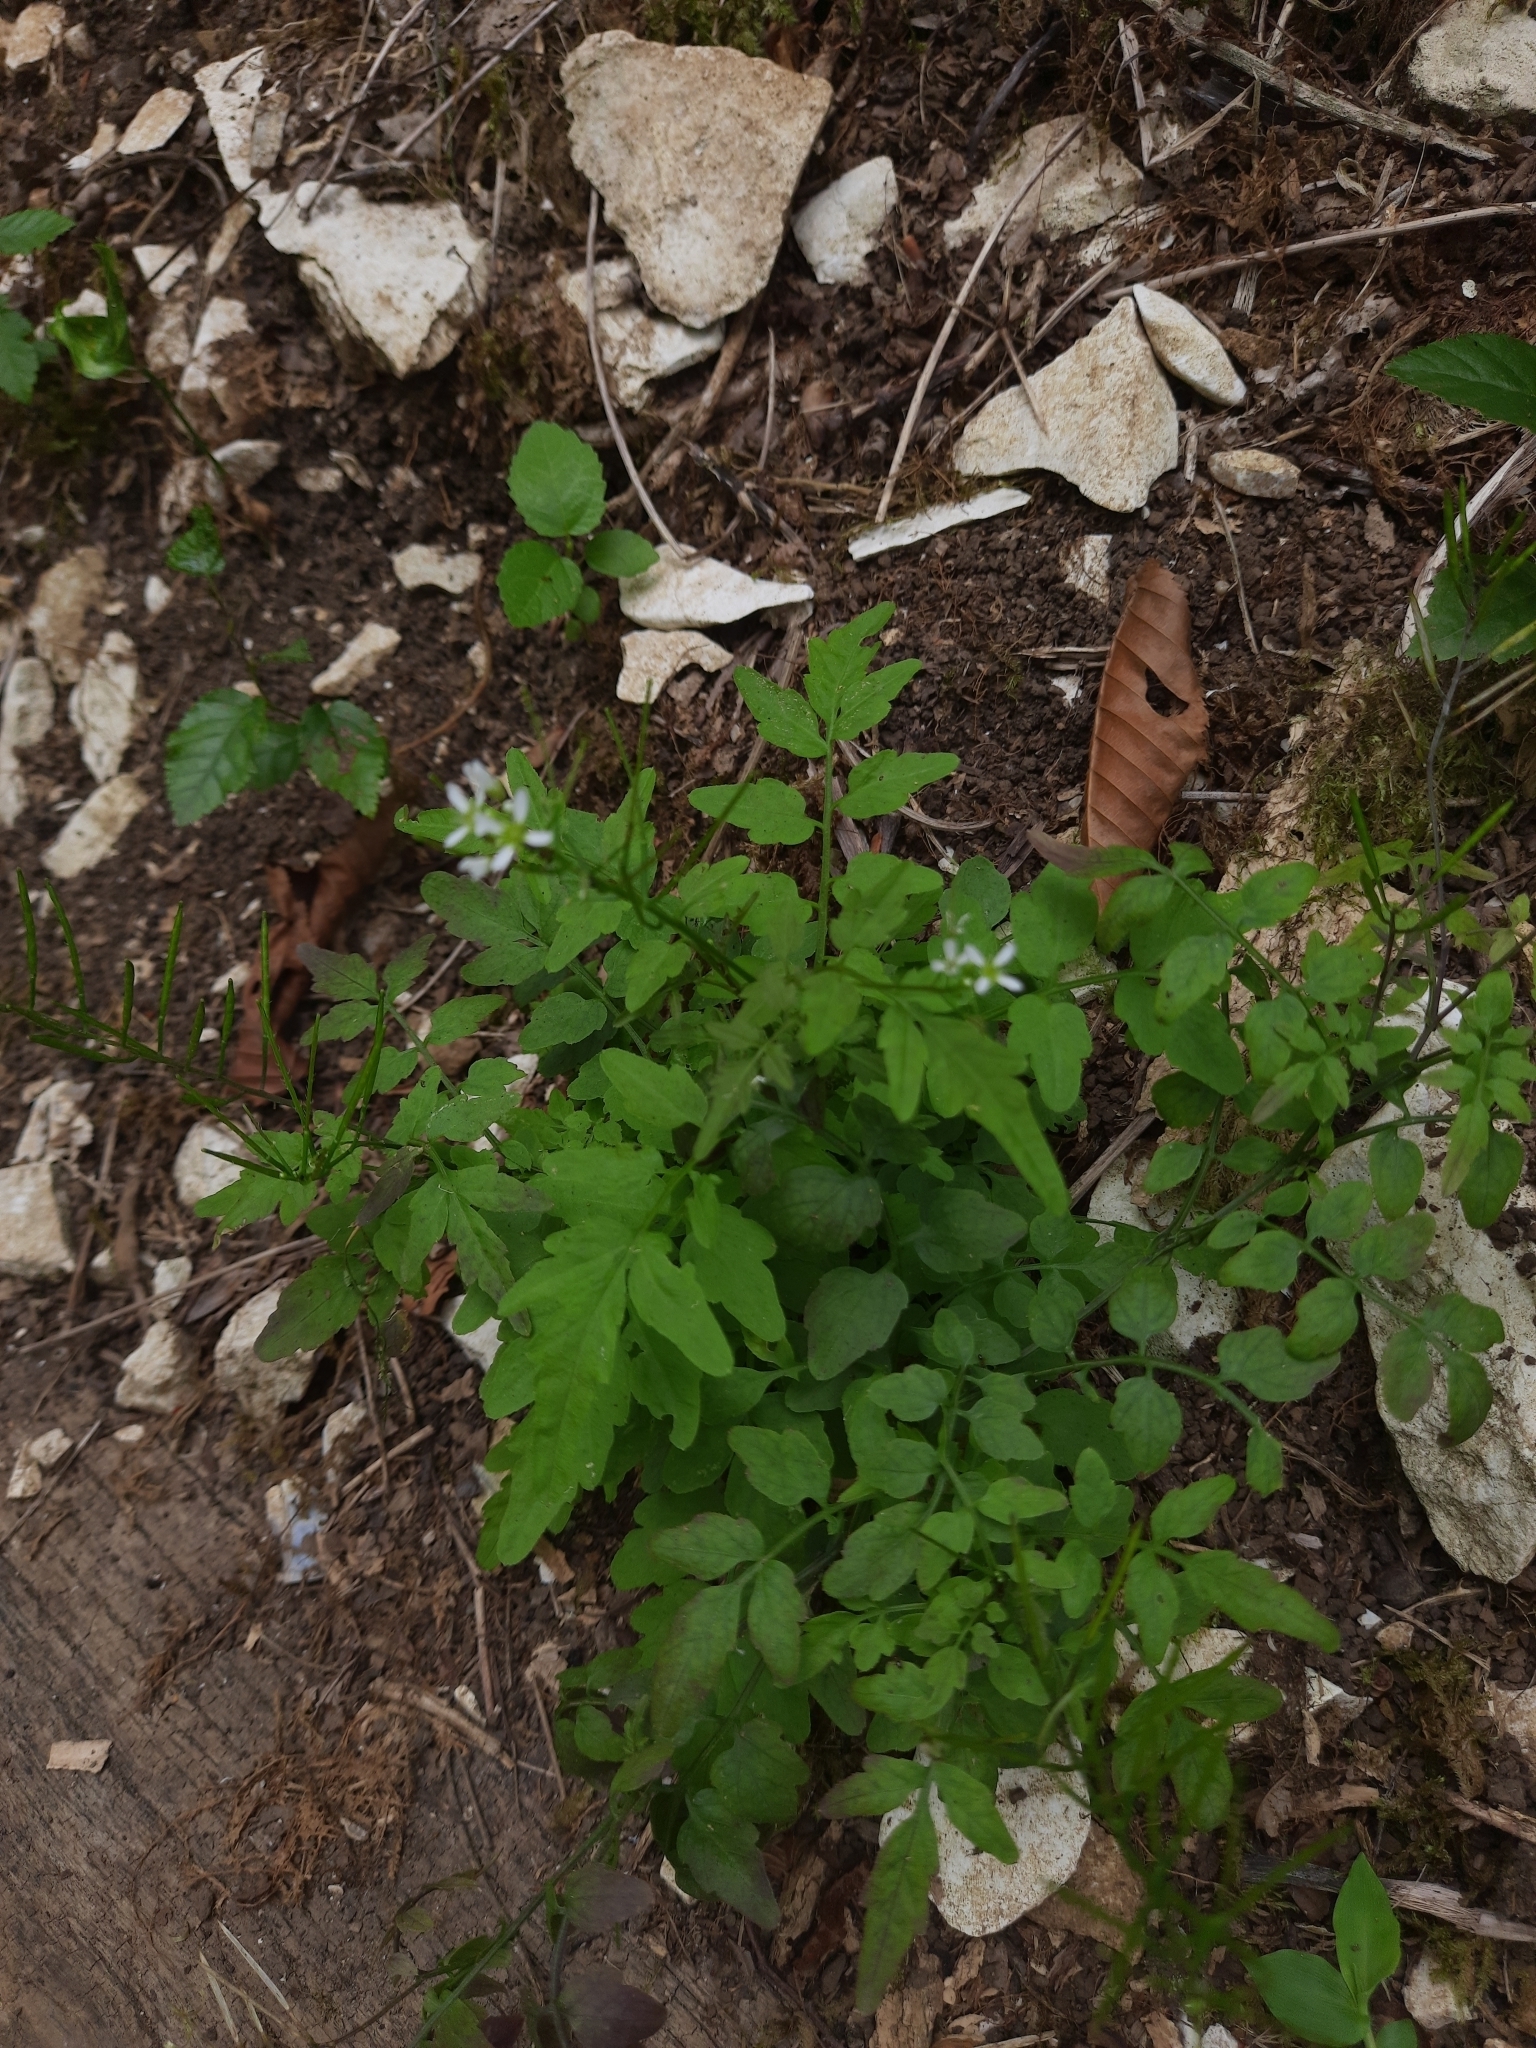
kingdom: Plantae
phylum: Tracheophyta
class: Magnoliopsida
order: Brassicales
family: Brassicaceae
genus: Cardamine
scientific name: Cardamine impatiens
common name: Narrow-leaved bitter-cress
